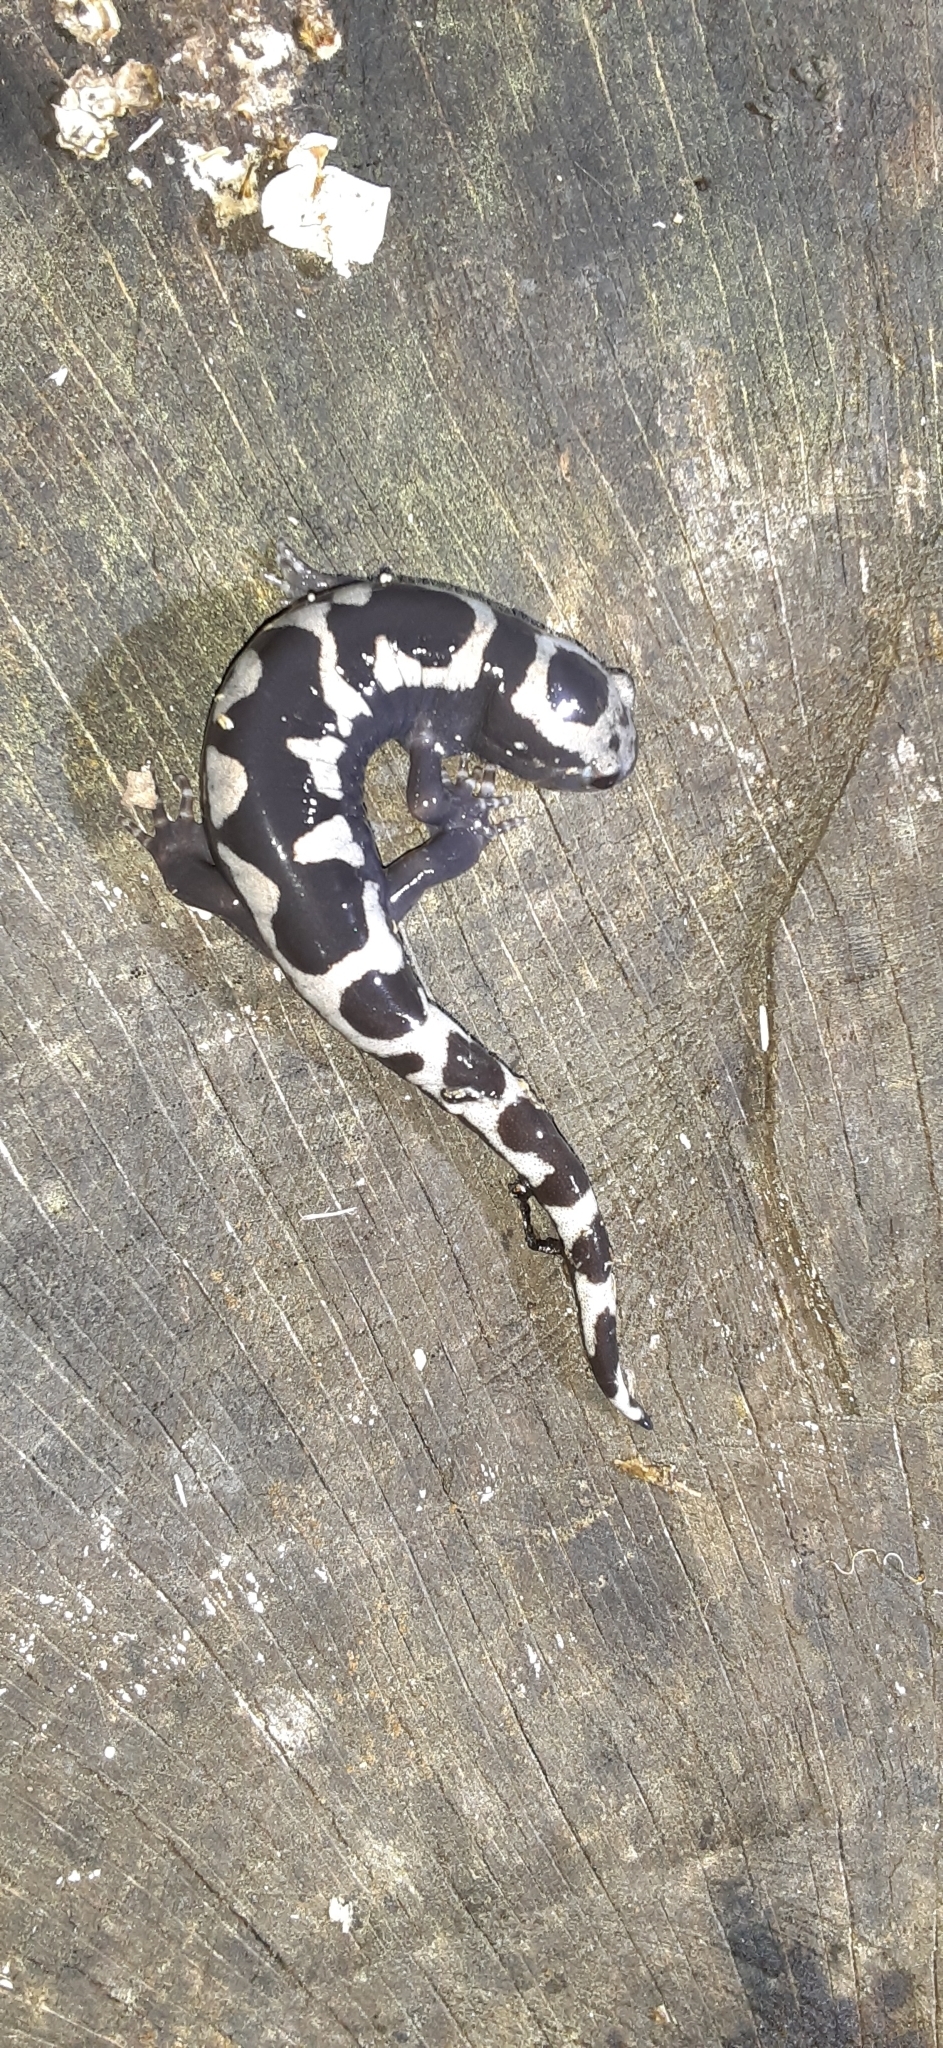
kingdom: Animalia
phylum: Chordata
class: Amphibia
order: Caudata
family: Ambystomatidae
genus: Ambystoma
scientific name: Ambystoma opacum
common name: Marbled salamander
